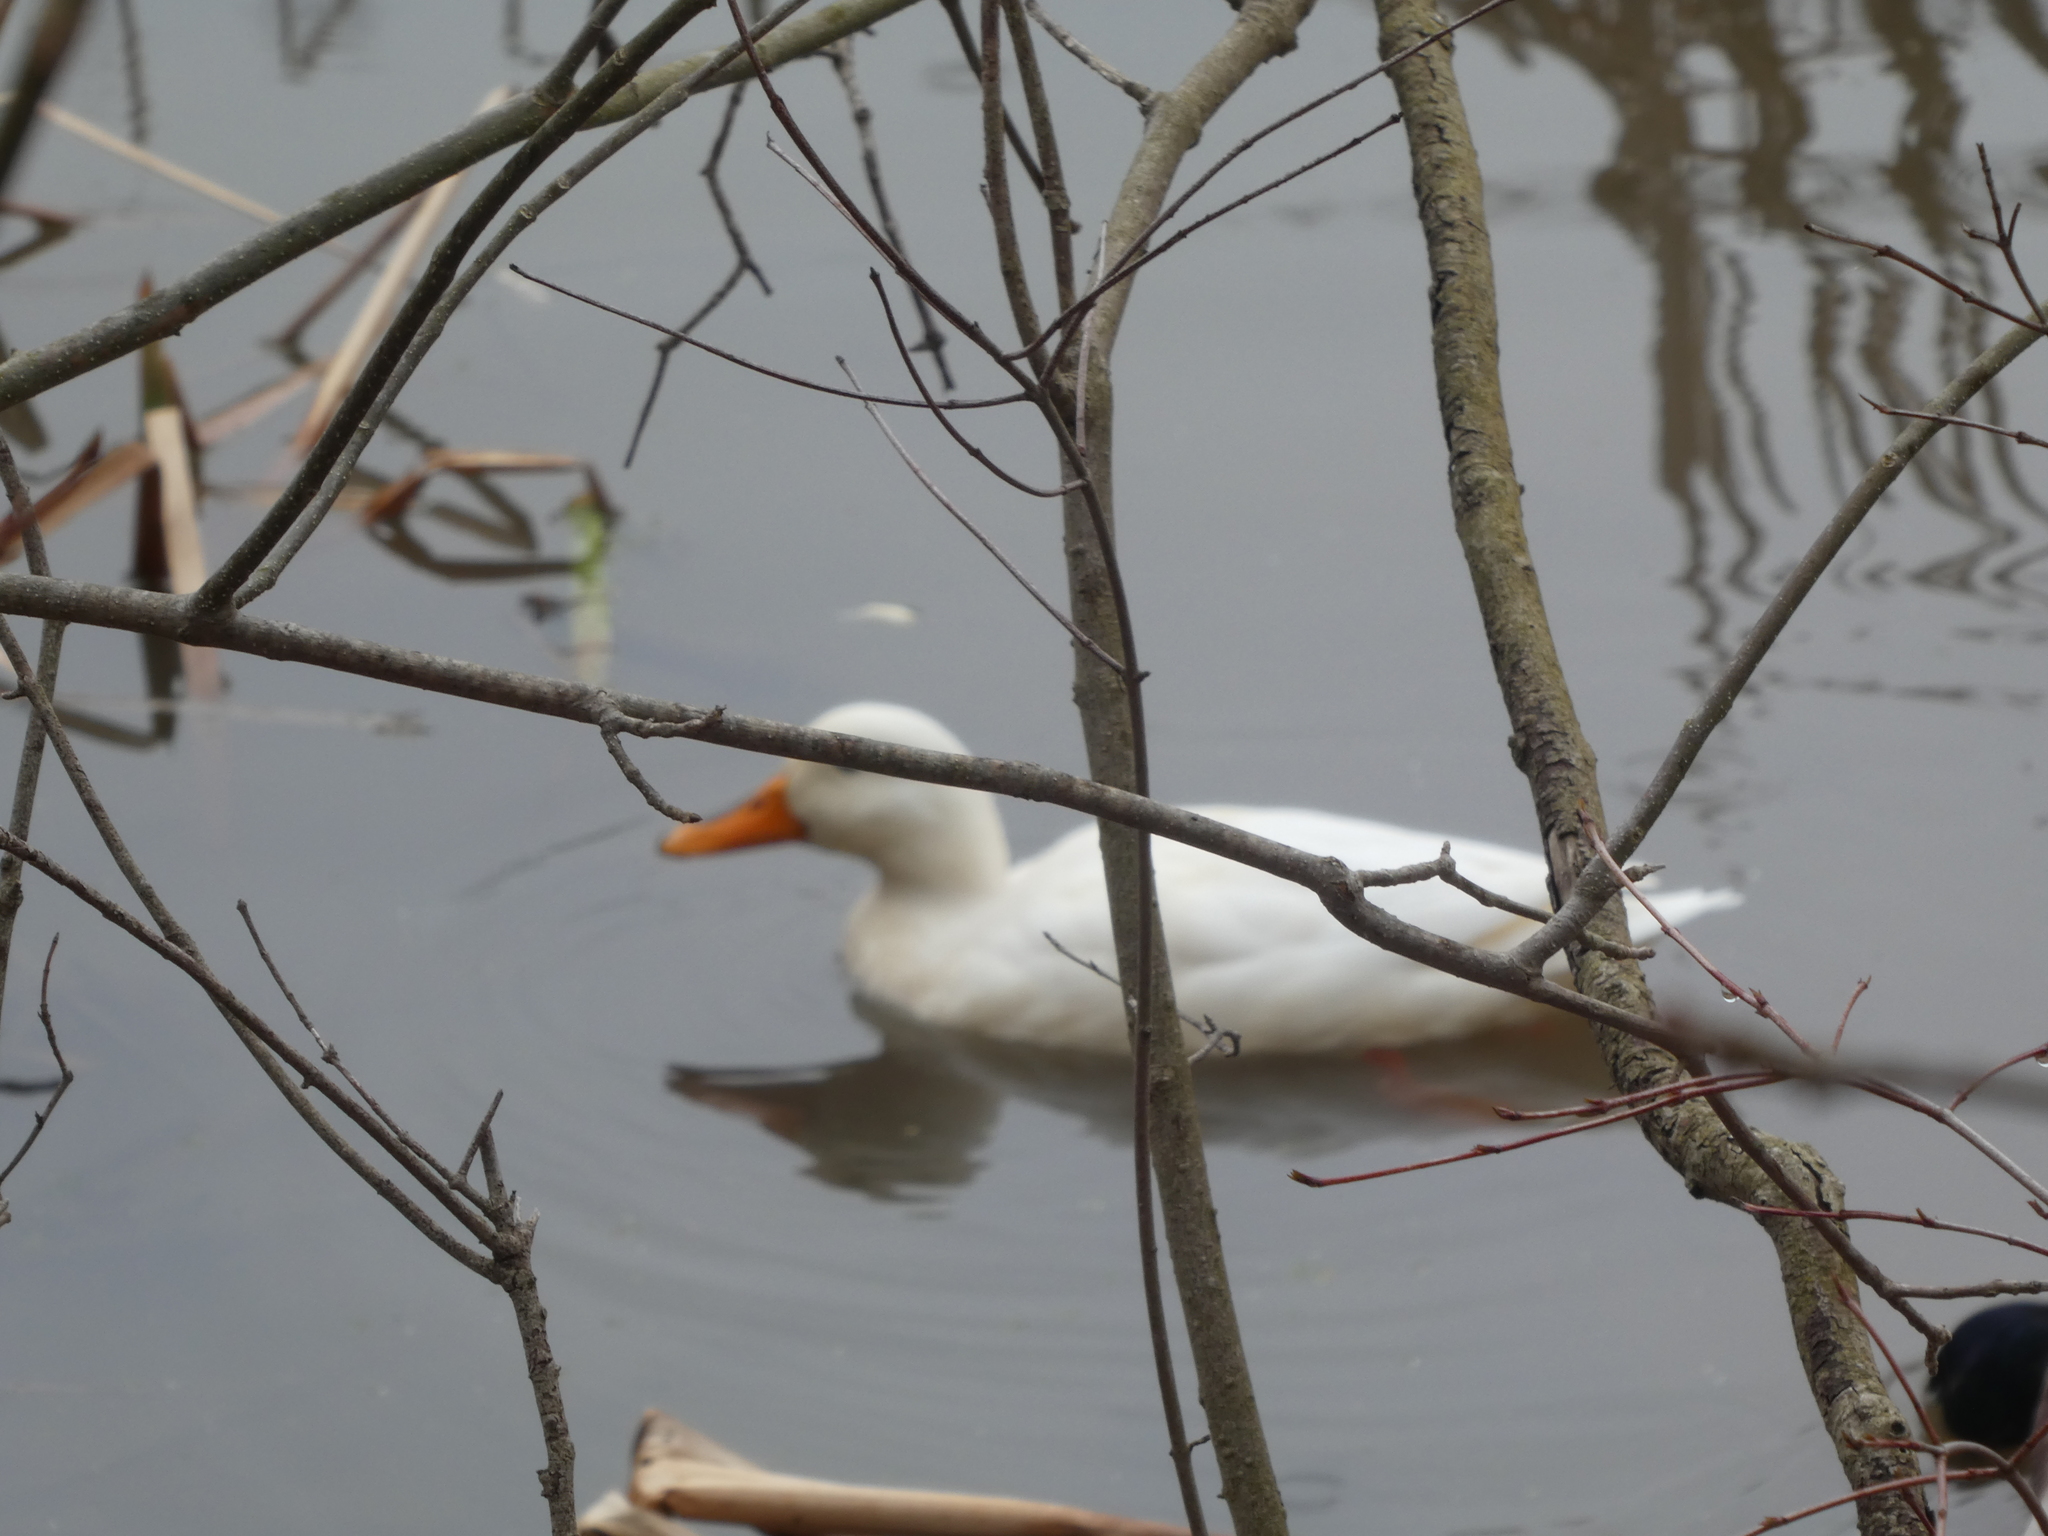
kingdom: Animalia
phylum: Chordata
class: Aves
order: Anseriformes
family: Anatidae
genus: Anas
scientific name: Anas platyrhynchos
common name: Mallard
